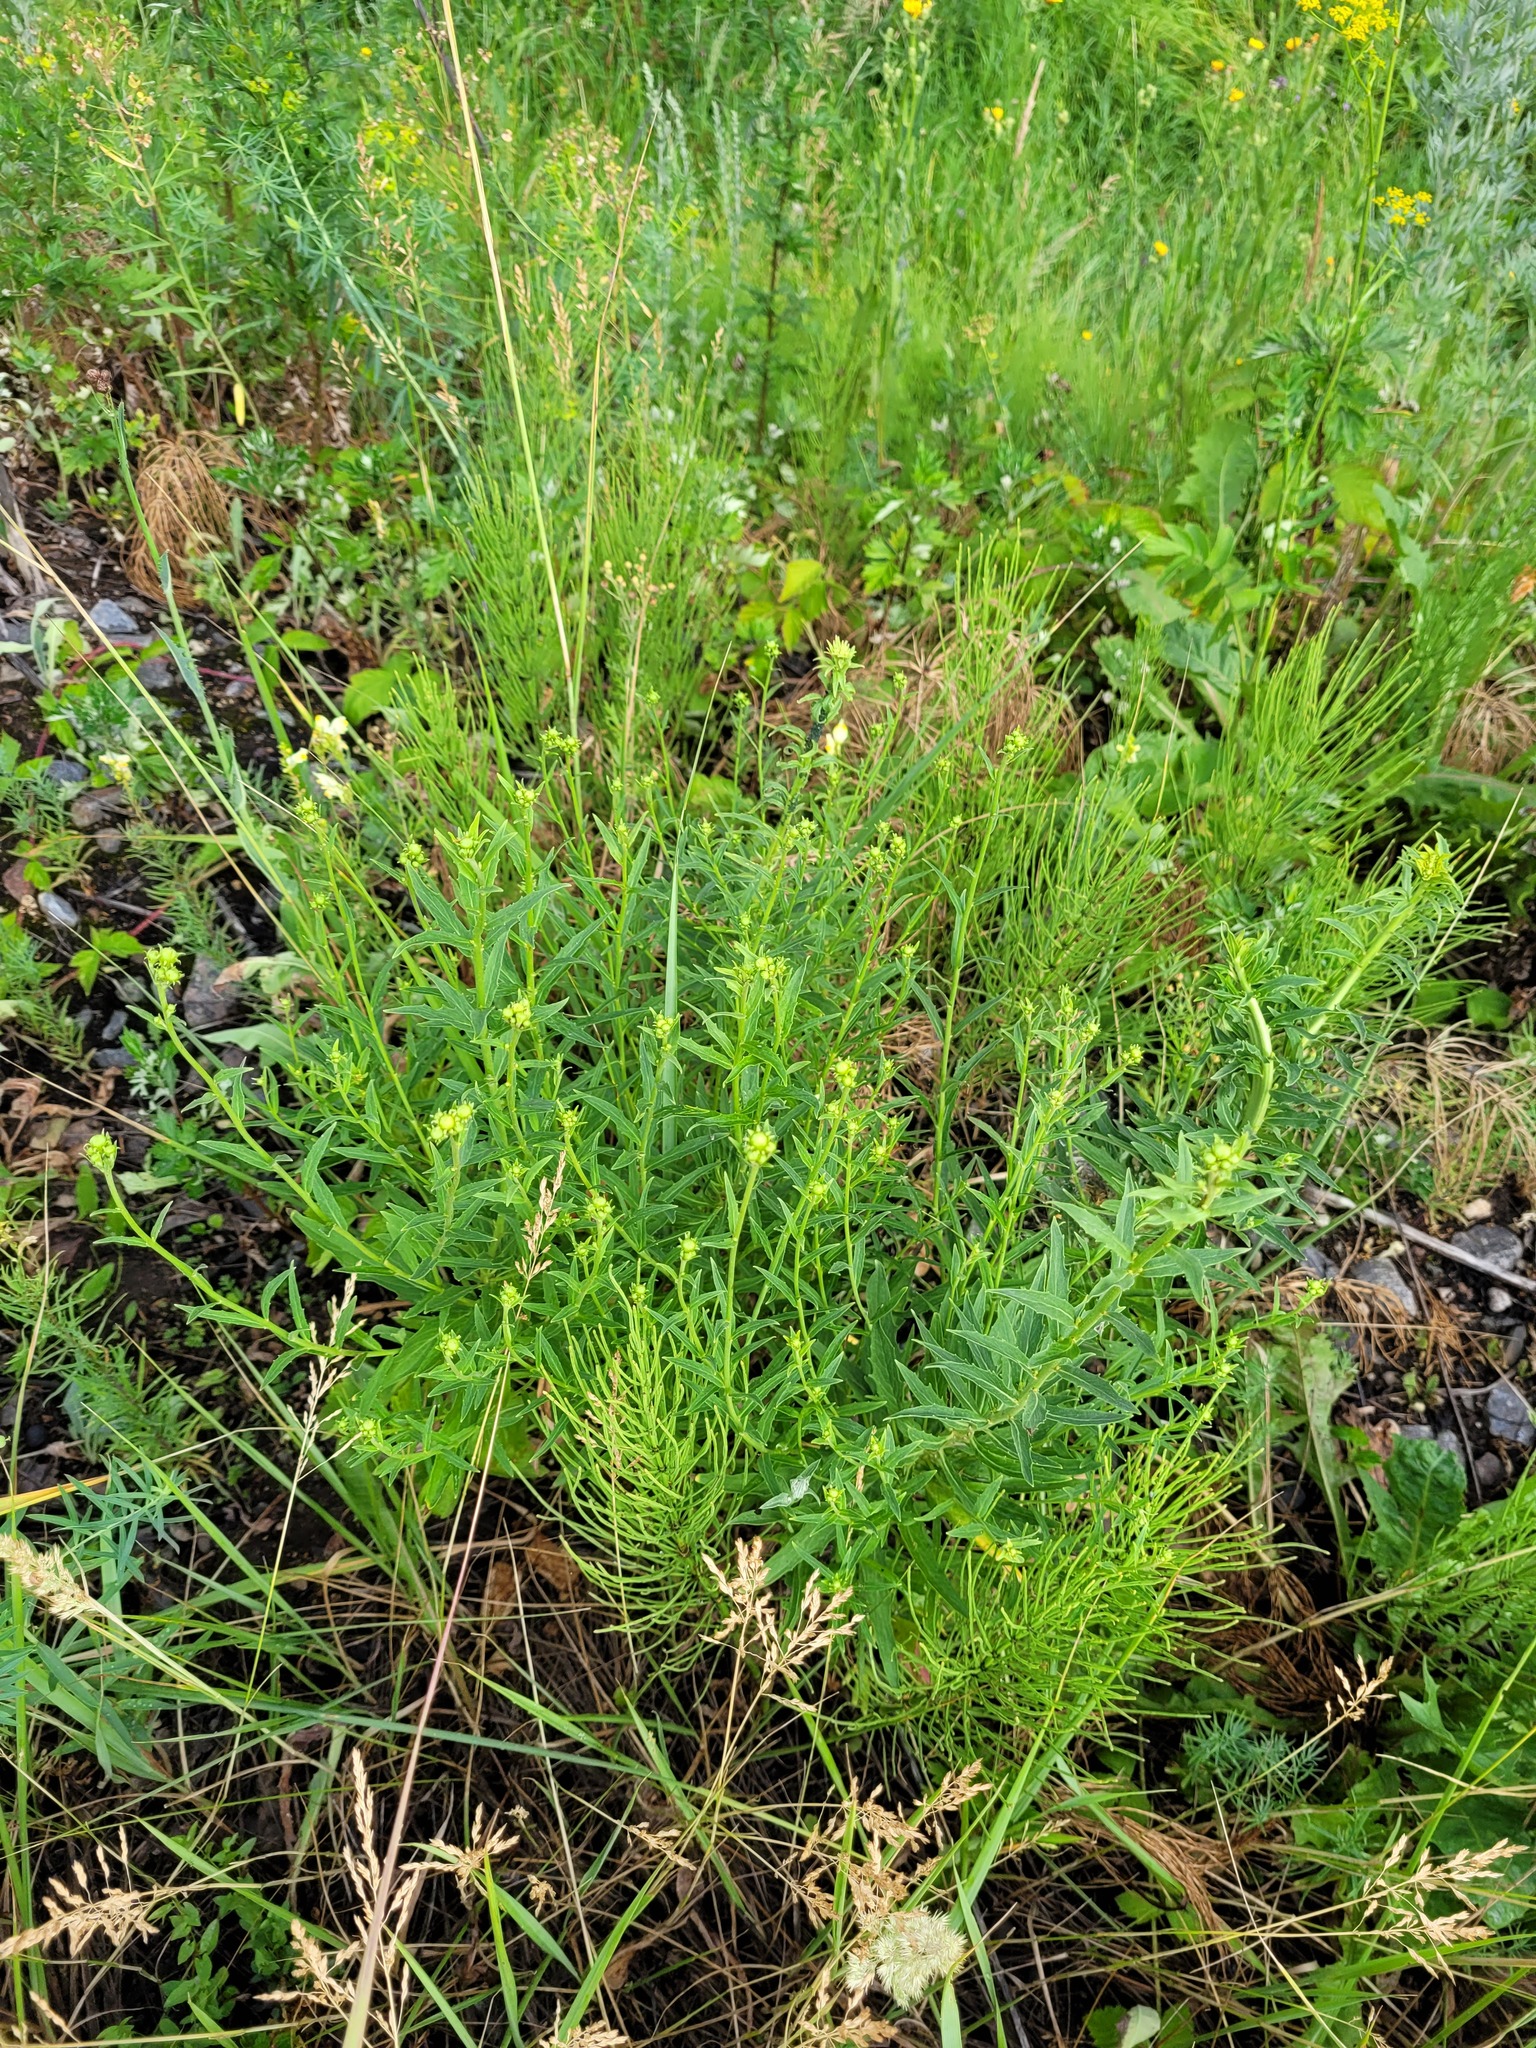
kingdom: Plantae
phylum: Tracheophyta
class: Magnoliopsida
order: Asterales
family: Asteraceae
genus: Hieracium
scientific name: Hieracium umbellatum
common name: Northern hawkweed
